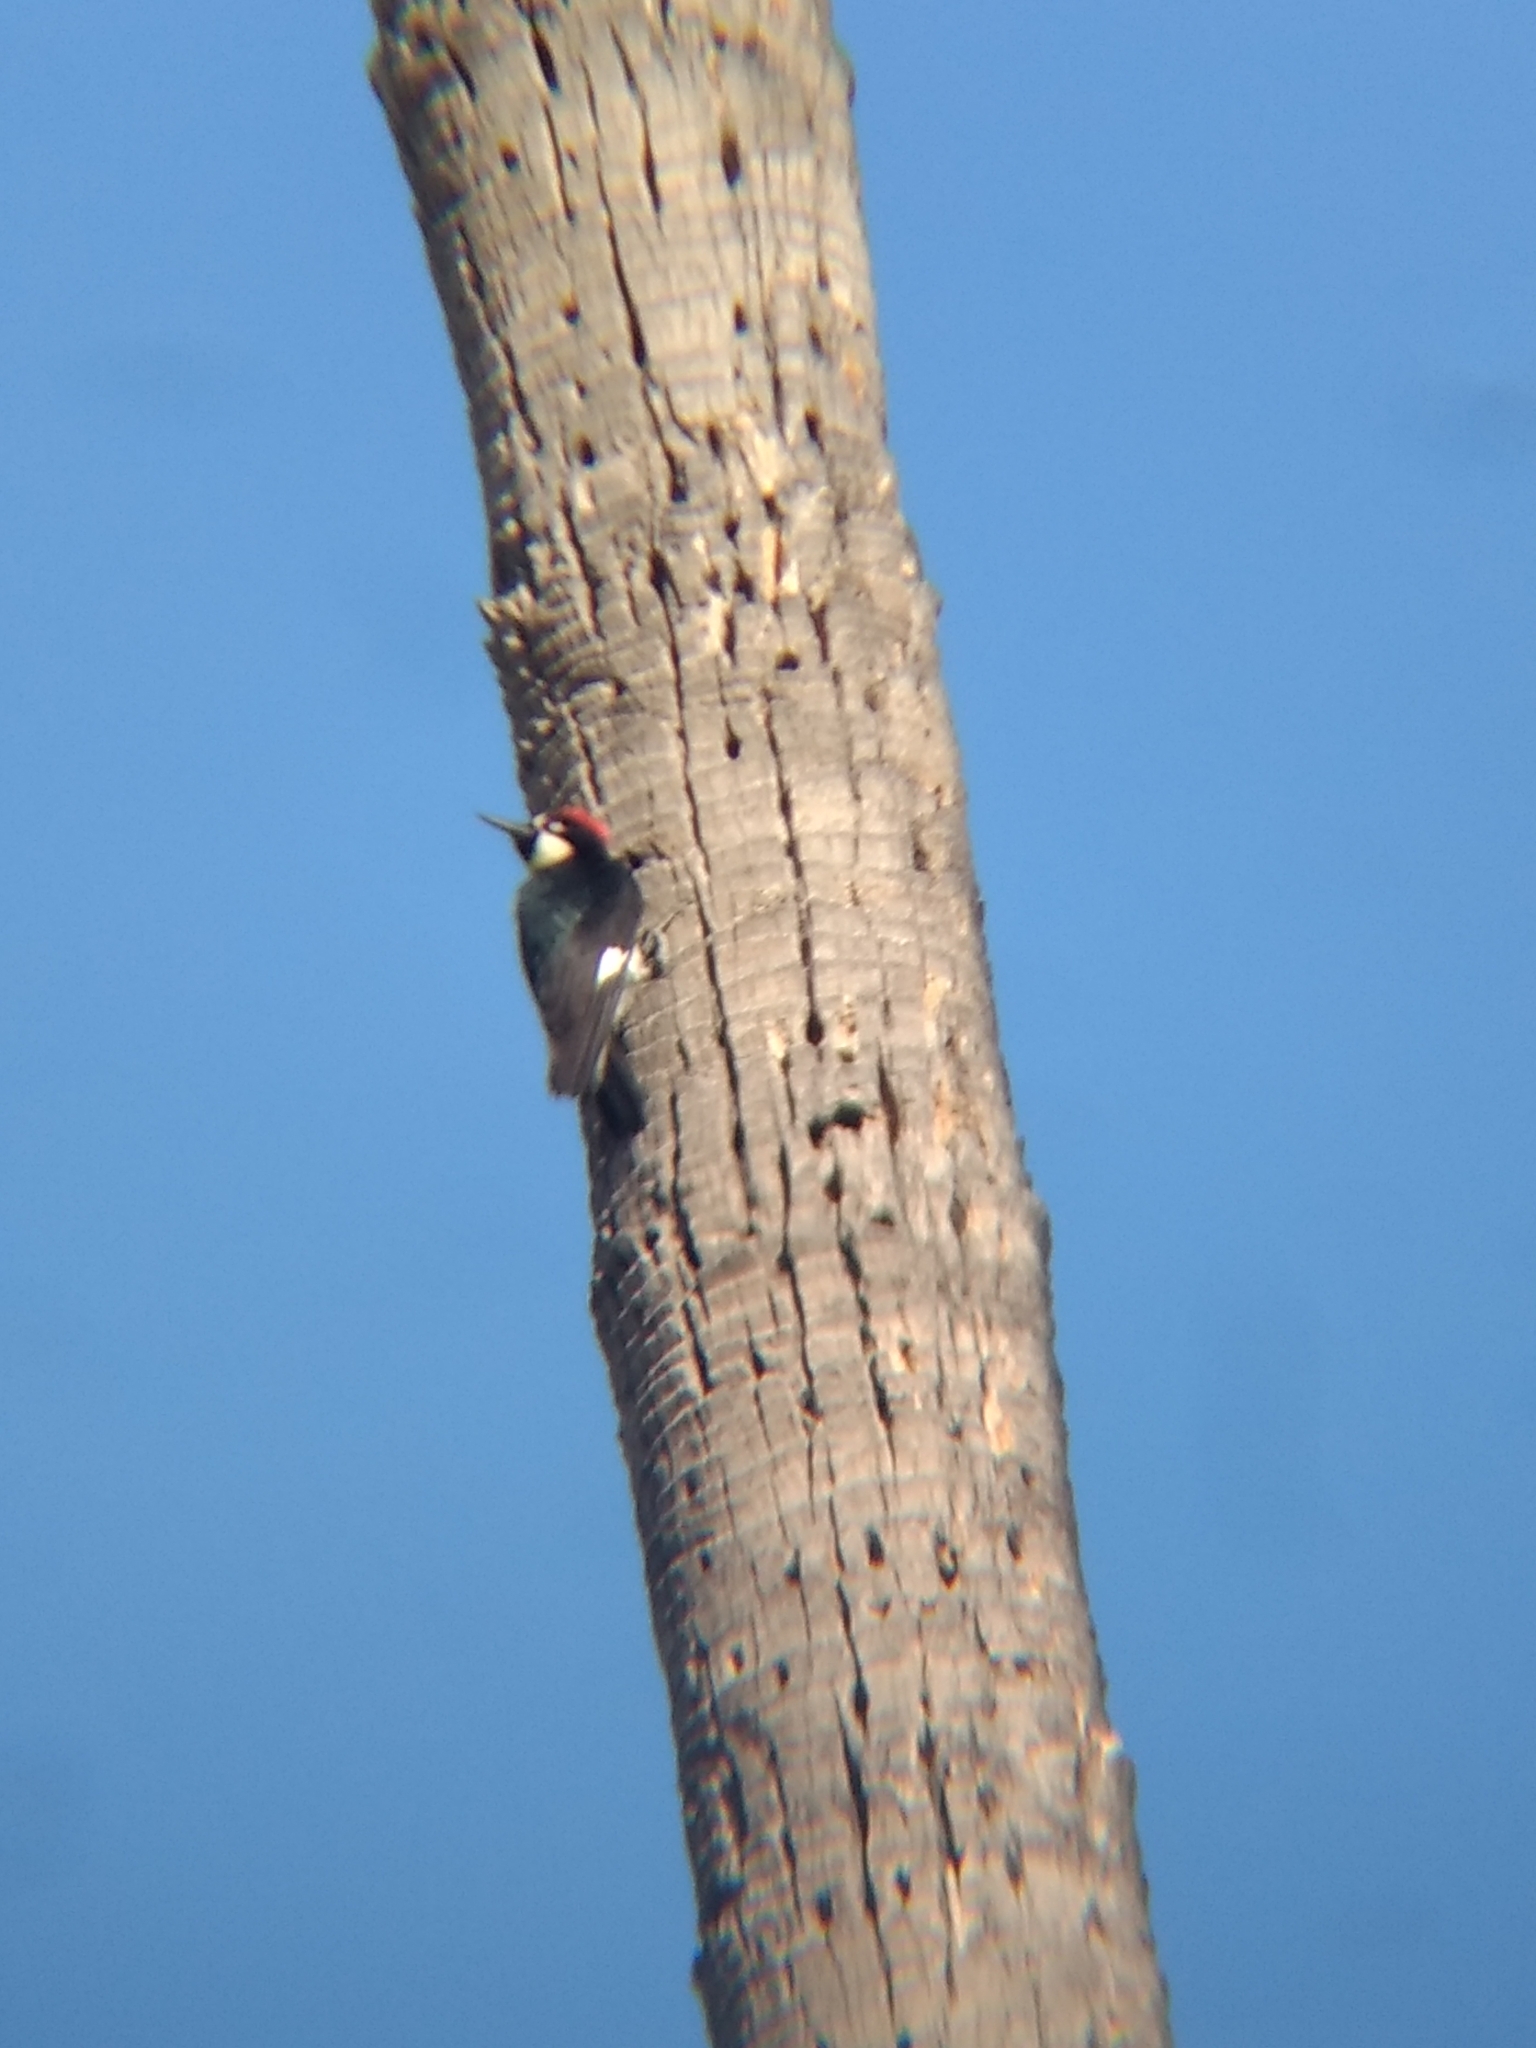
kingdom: Animalia
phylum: Chordata
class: Aves
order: Piciformes
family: Picidae
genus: Melanerpes
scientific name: Melanerpes formicivorus
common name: Acorn woodpecker
